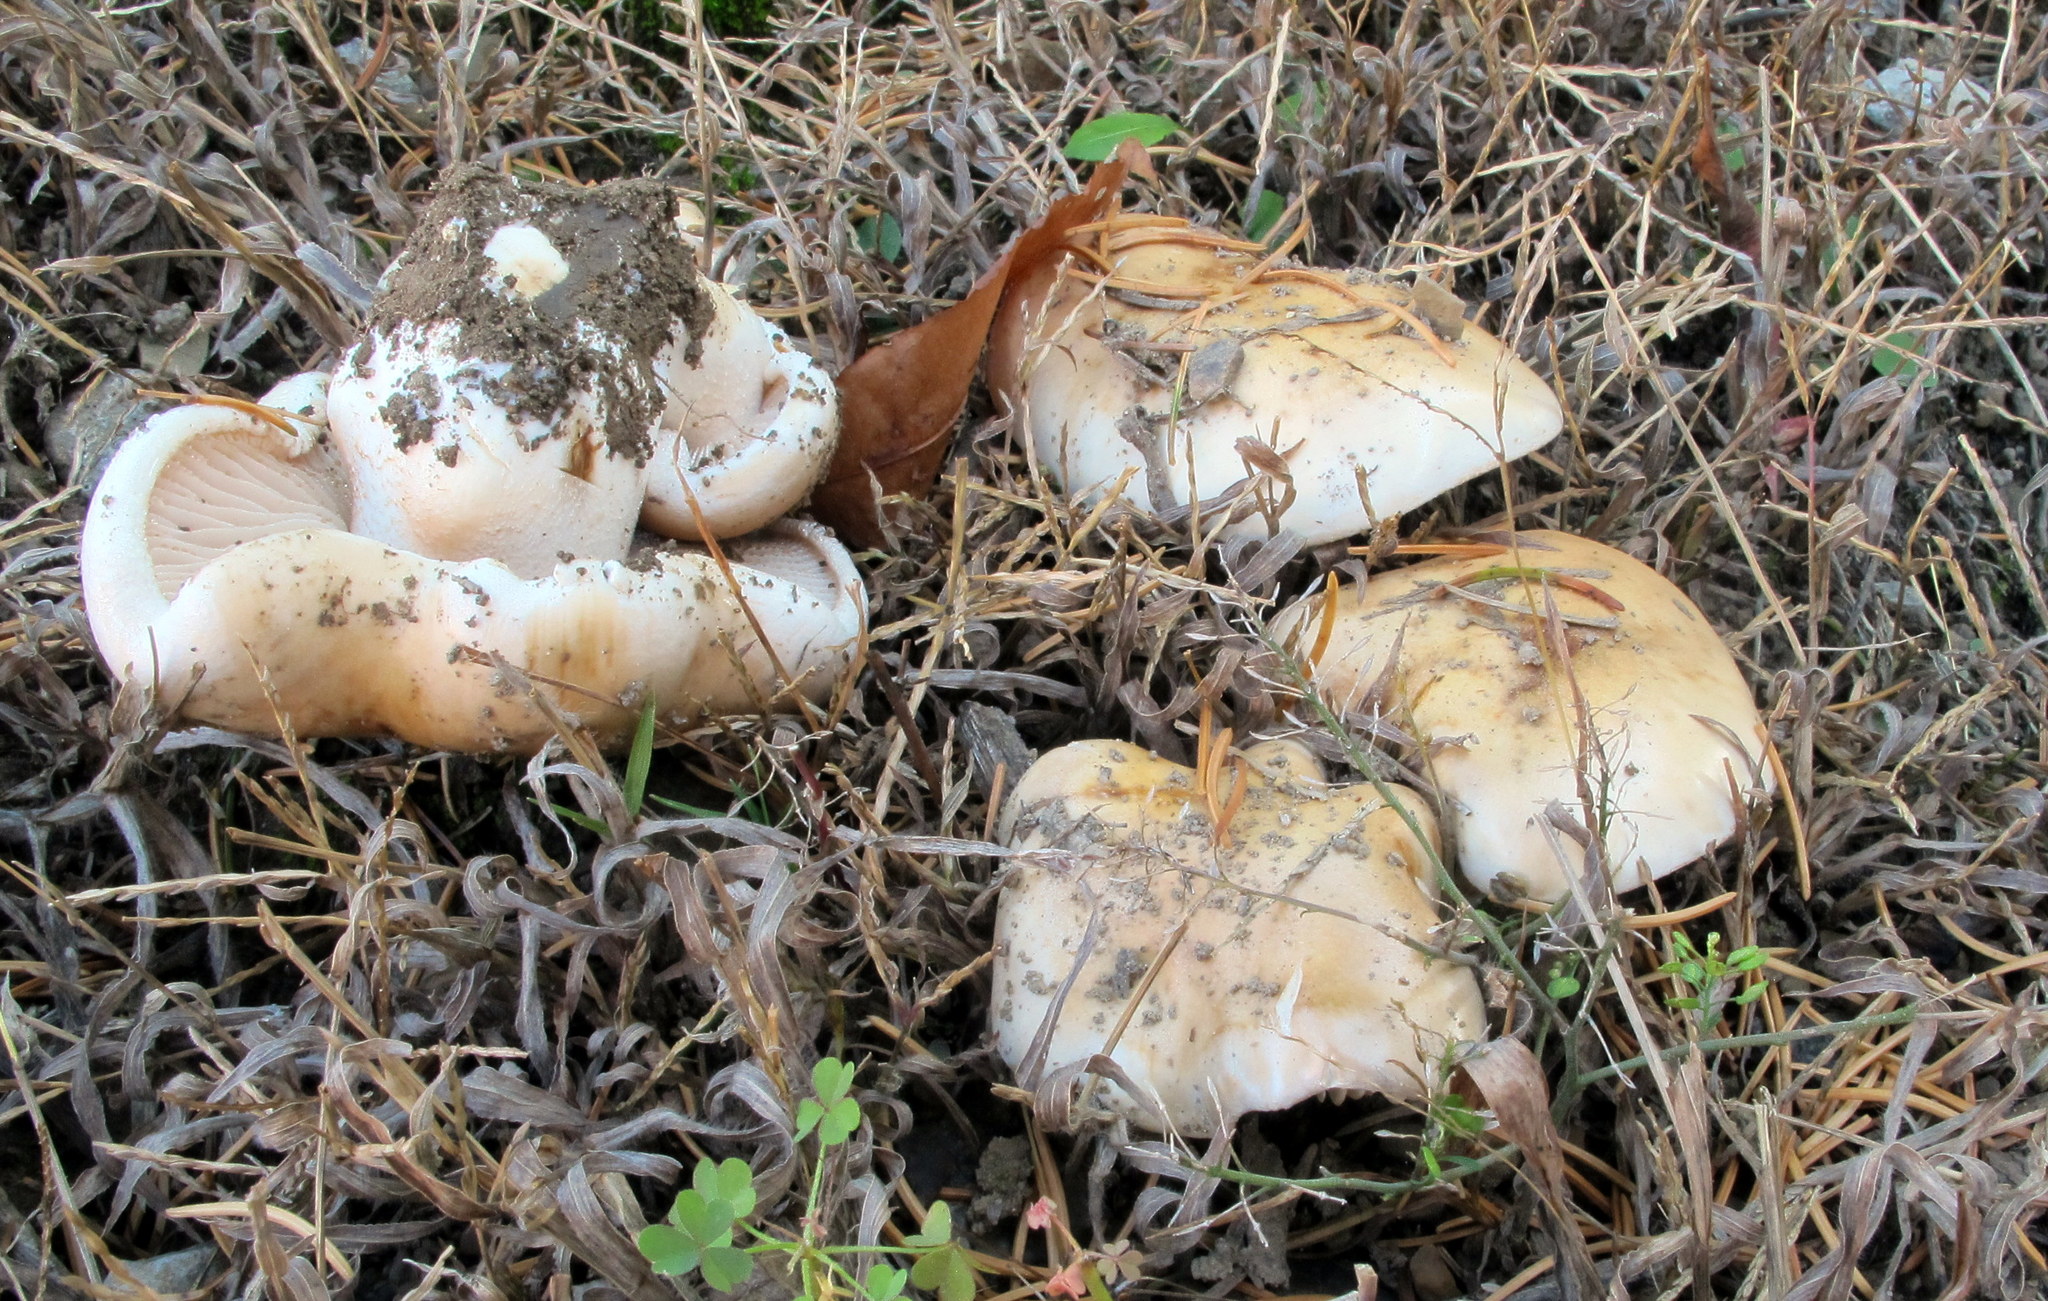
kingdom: Fungi
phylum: Basidiomycota
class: Agaricomycetes
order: Agaricales
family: Hymenogastraceae
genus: Hebeloma
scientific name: Hebeloma crustuliniforme
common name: Poison pie
